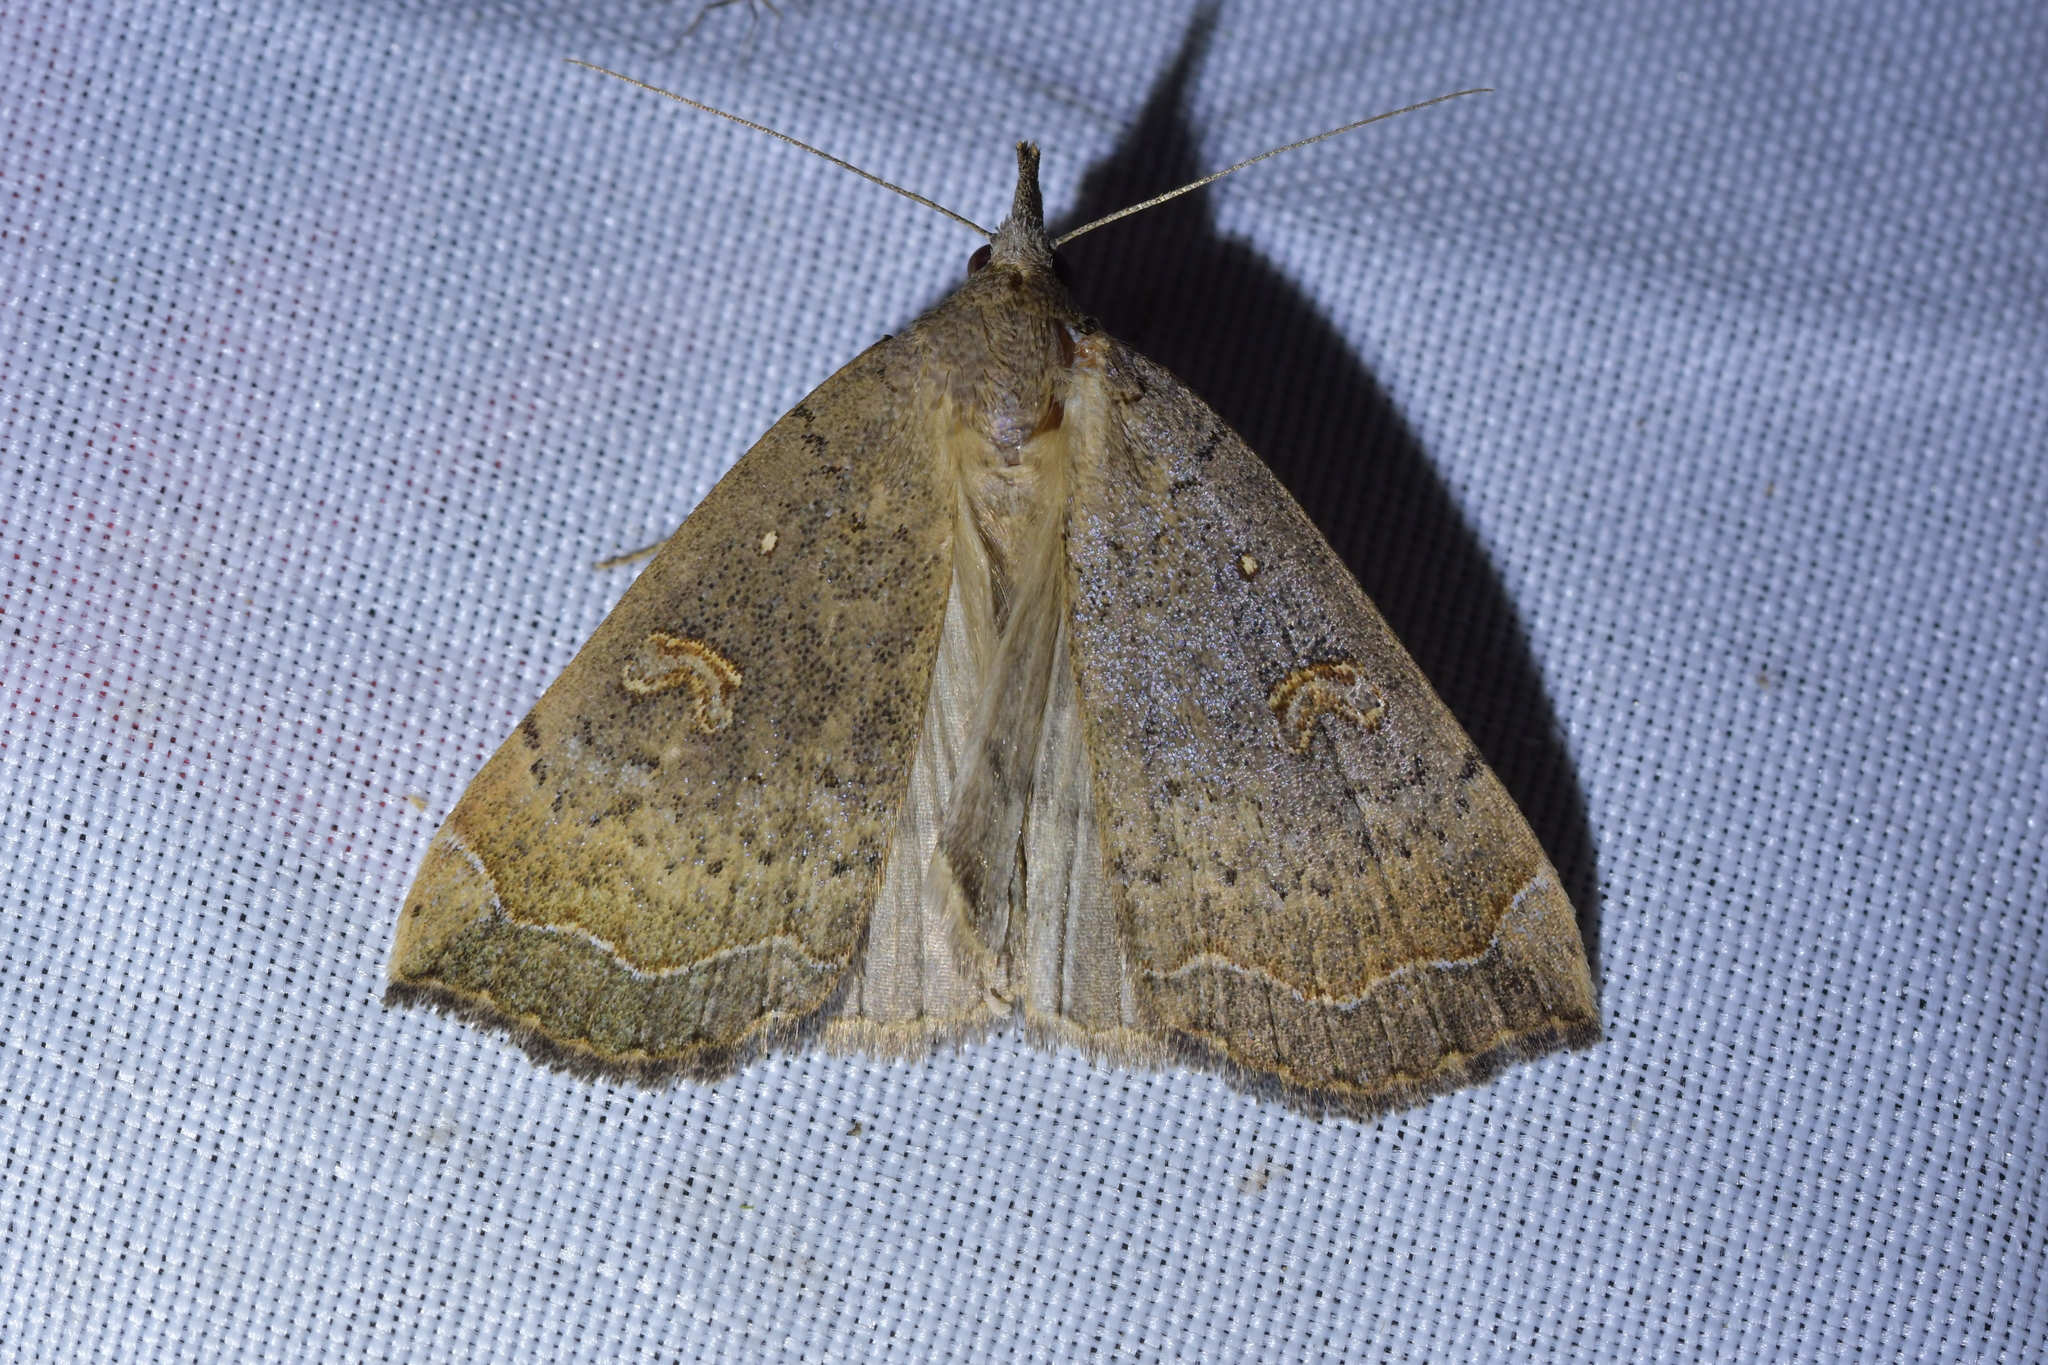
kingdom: Animalia
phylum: Arthropoda
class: Insecta
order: Lepidoptera
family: Erebidae
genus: Rhapsa
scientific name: Rhapsa scotosialis
